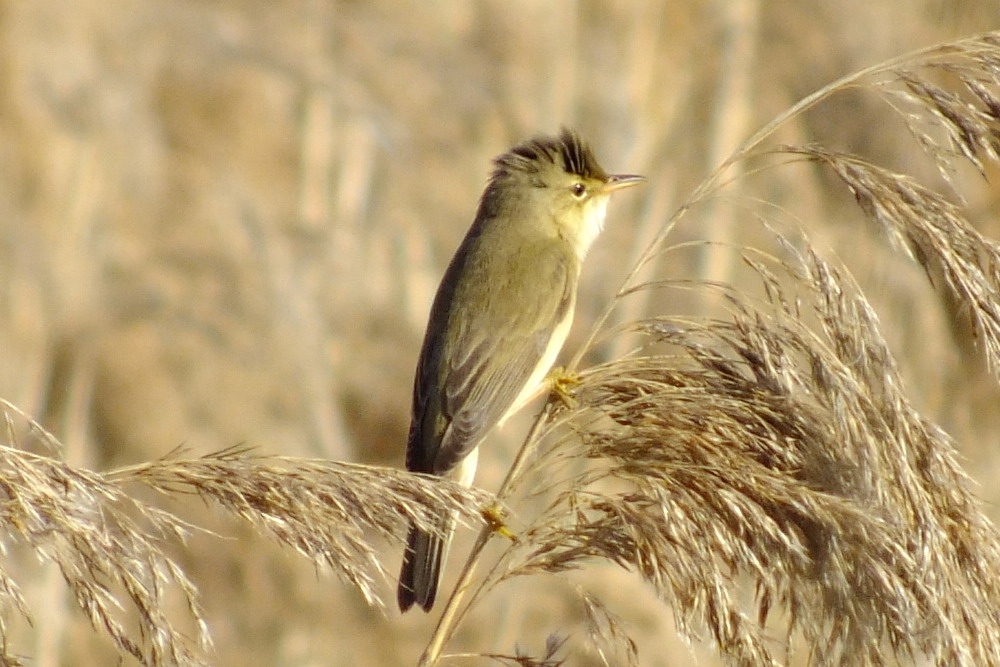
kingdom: Animalia
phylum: Chordata
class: Aves
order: Passeriformes
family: Acrocephalidae
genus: Acrocephalus
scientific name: Acrocephalus palustris
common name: Marsh warbler
